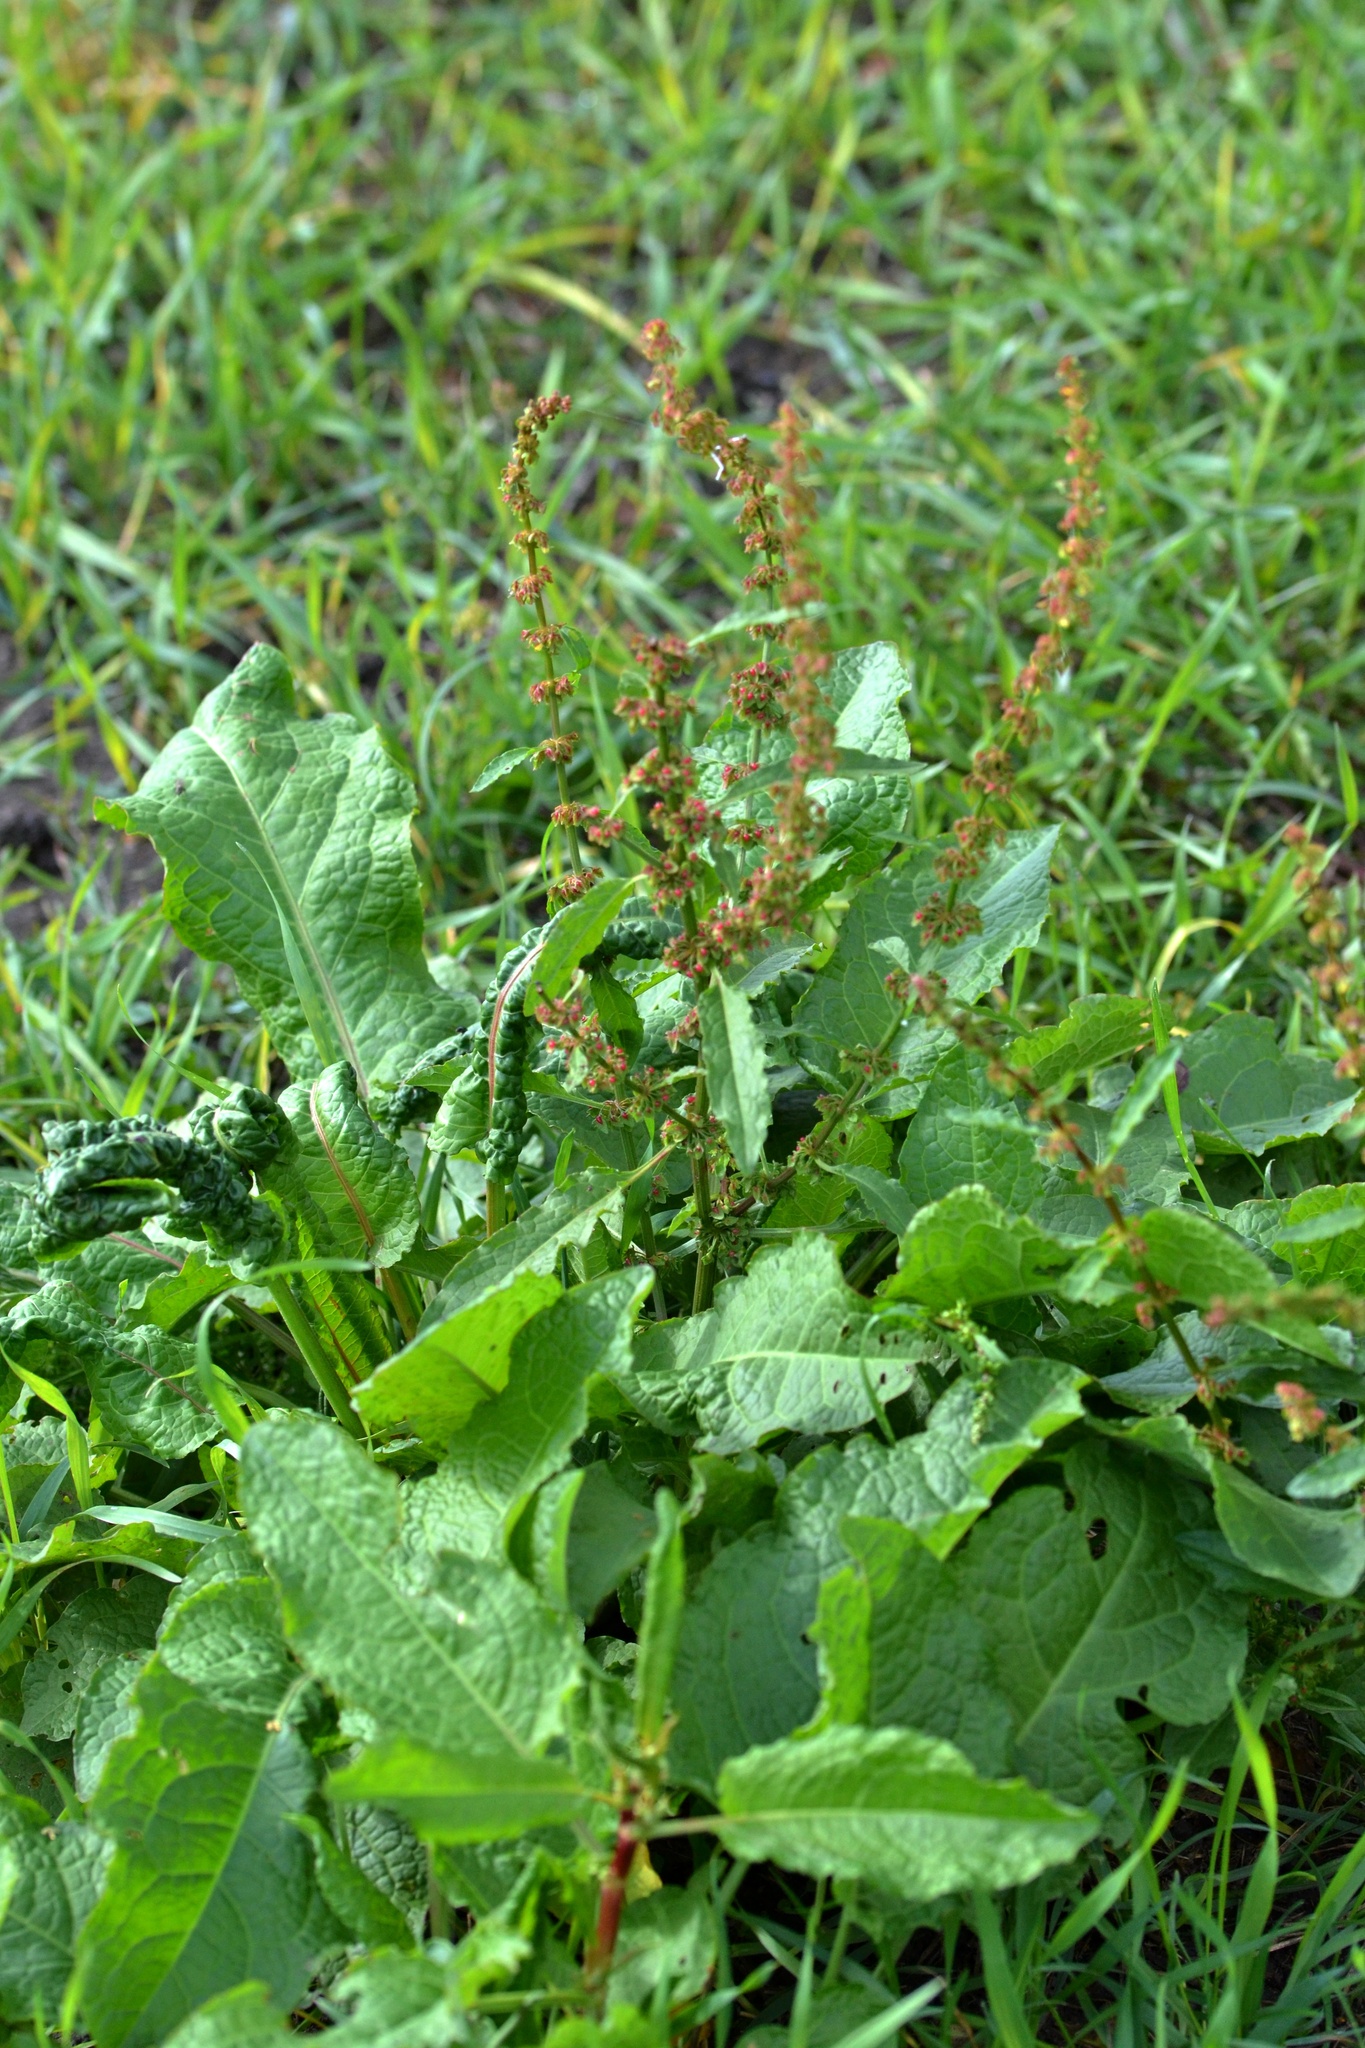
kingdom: Plantae
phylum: Tracheophyta
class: Magnoliopsida
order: Caryophyllales
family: Polygonaceae
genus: Rumex
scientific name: Rumex obtusifolius
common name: Bitter dock
